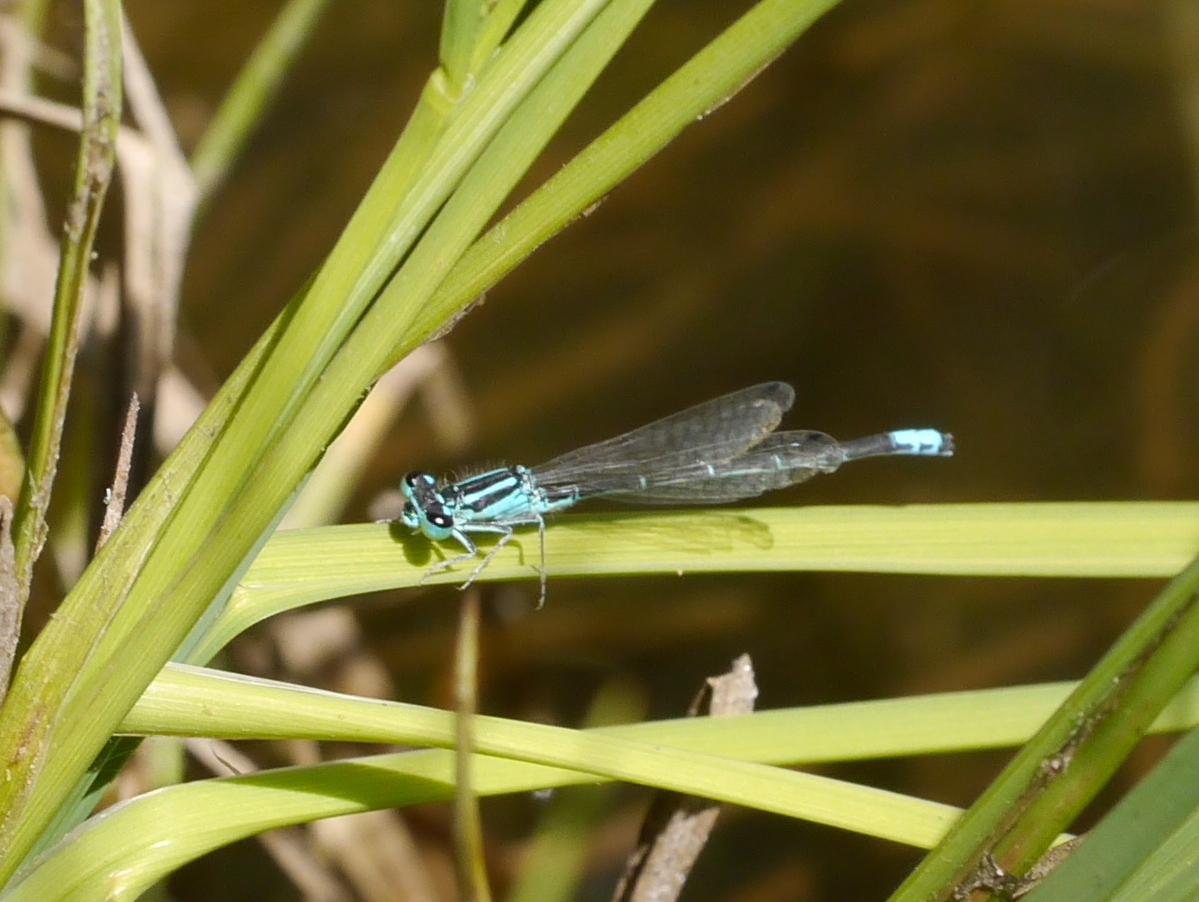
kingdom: Animalia
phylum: Arthropoda
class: Insecta
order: Odonata
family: Coenagrionidae
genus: Ischnura
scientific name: Ischnura perparva
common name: Western forktail
